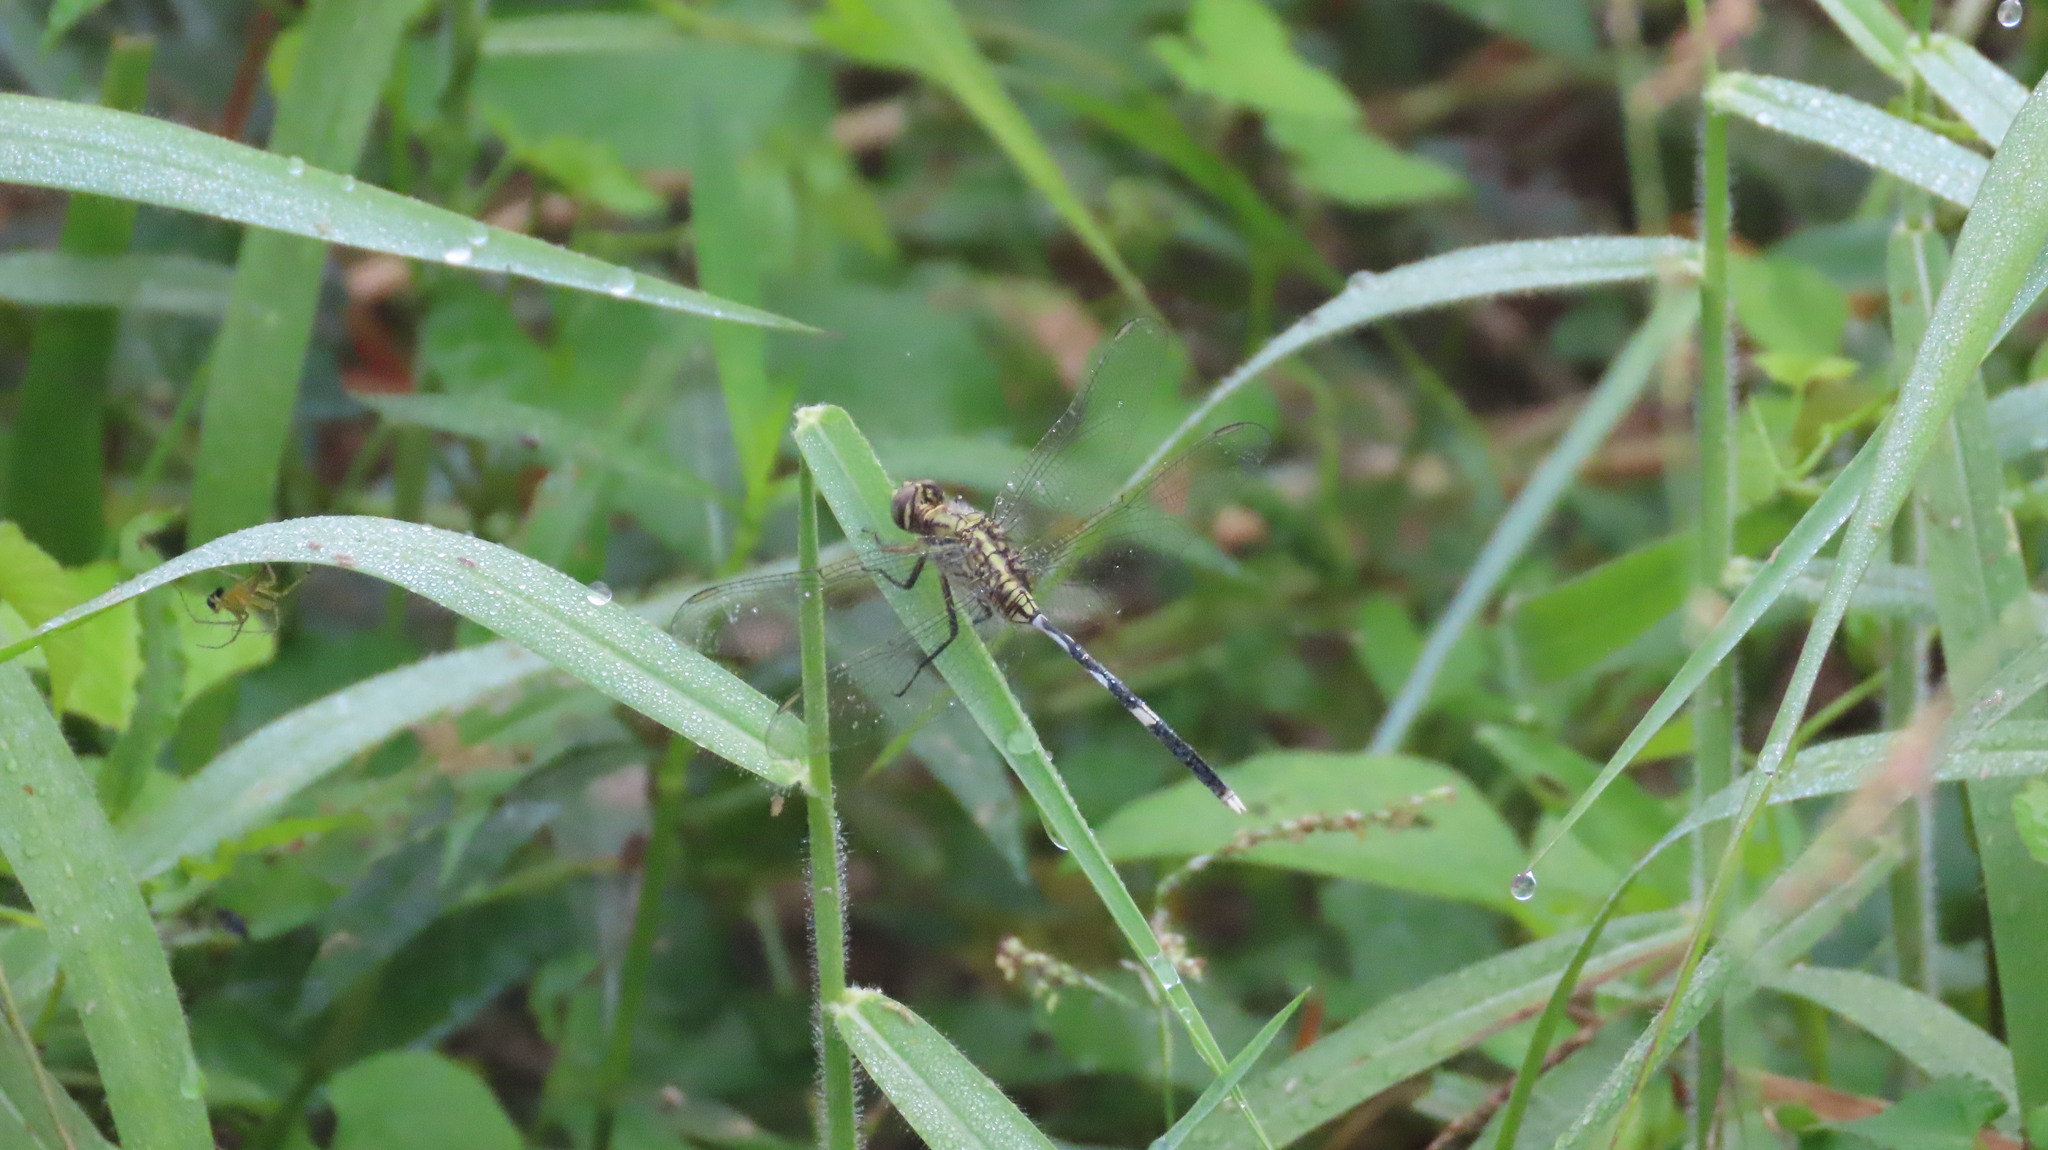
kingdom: Animalia
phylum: Arthropoda
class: Insecta
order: Odonata
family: Libellulidae
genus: Orthetrum
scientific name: Orthetrum sabina
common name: Slender skimmer
